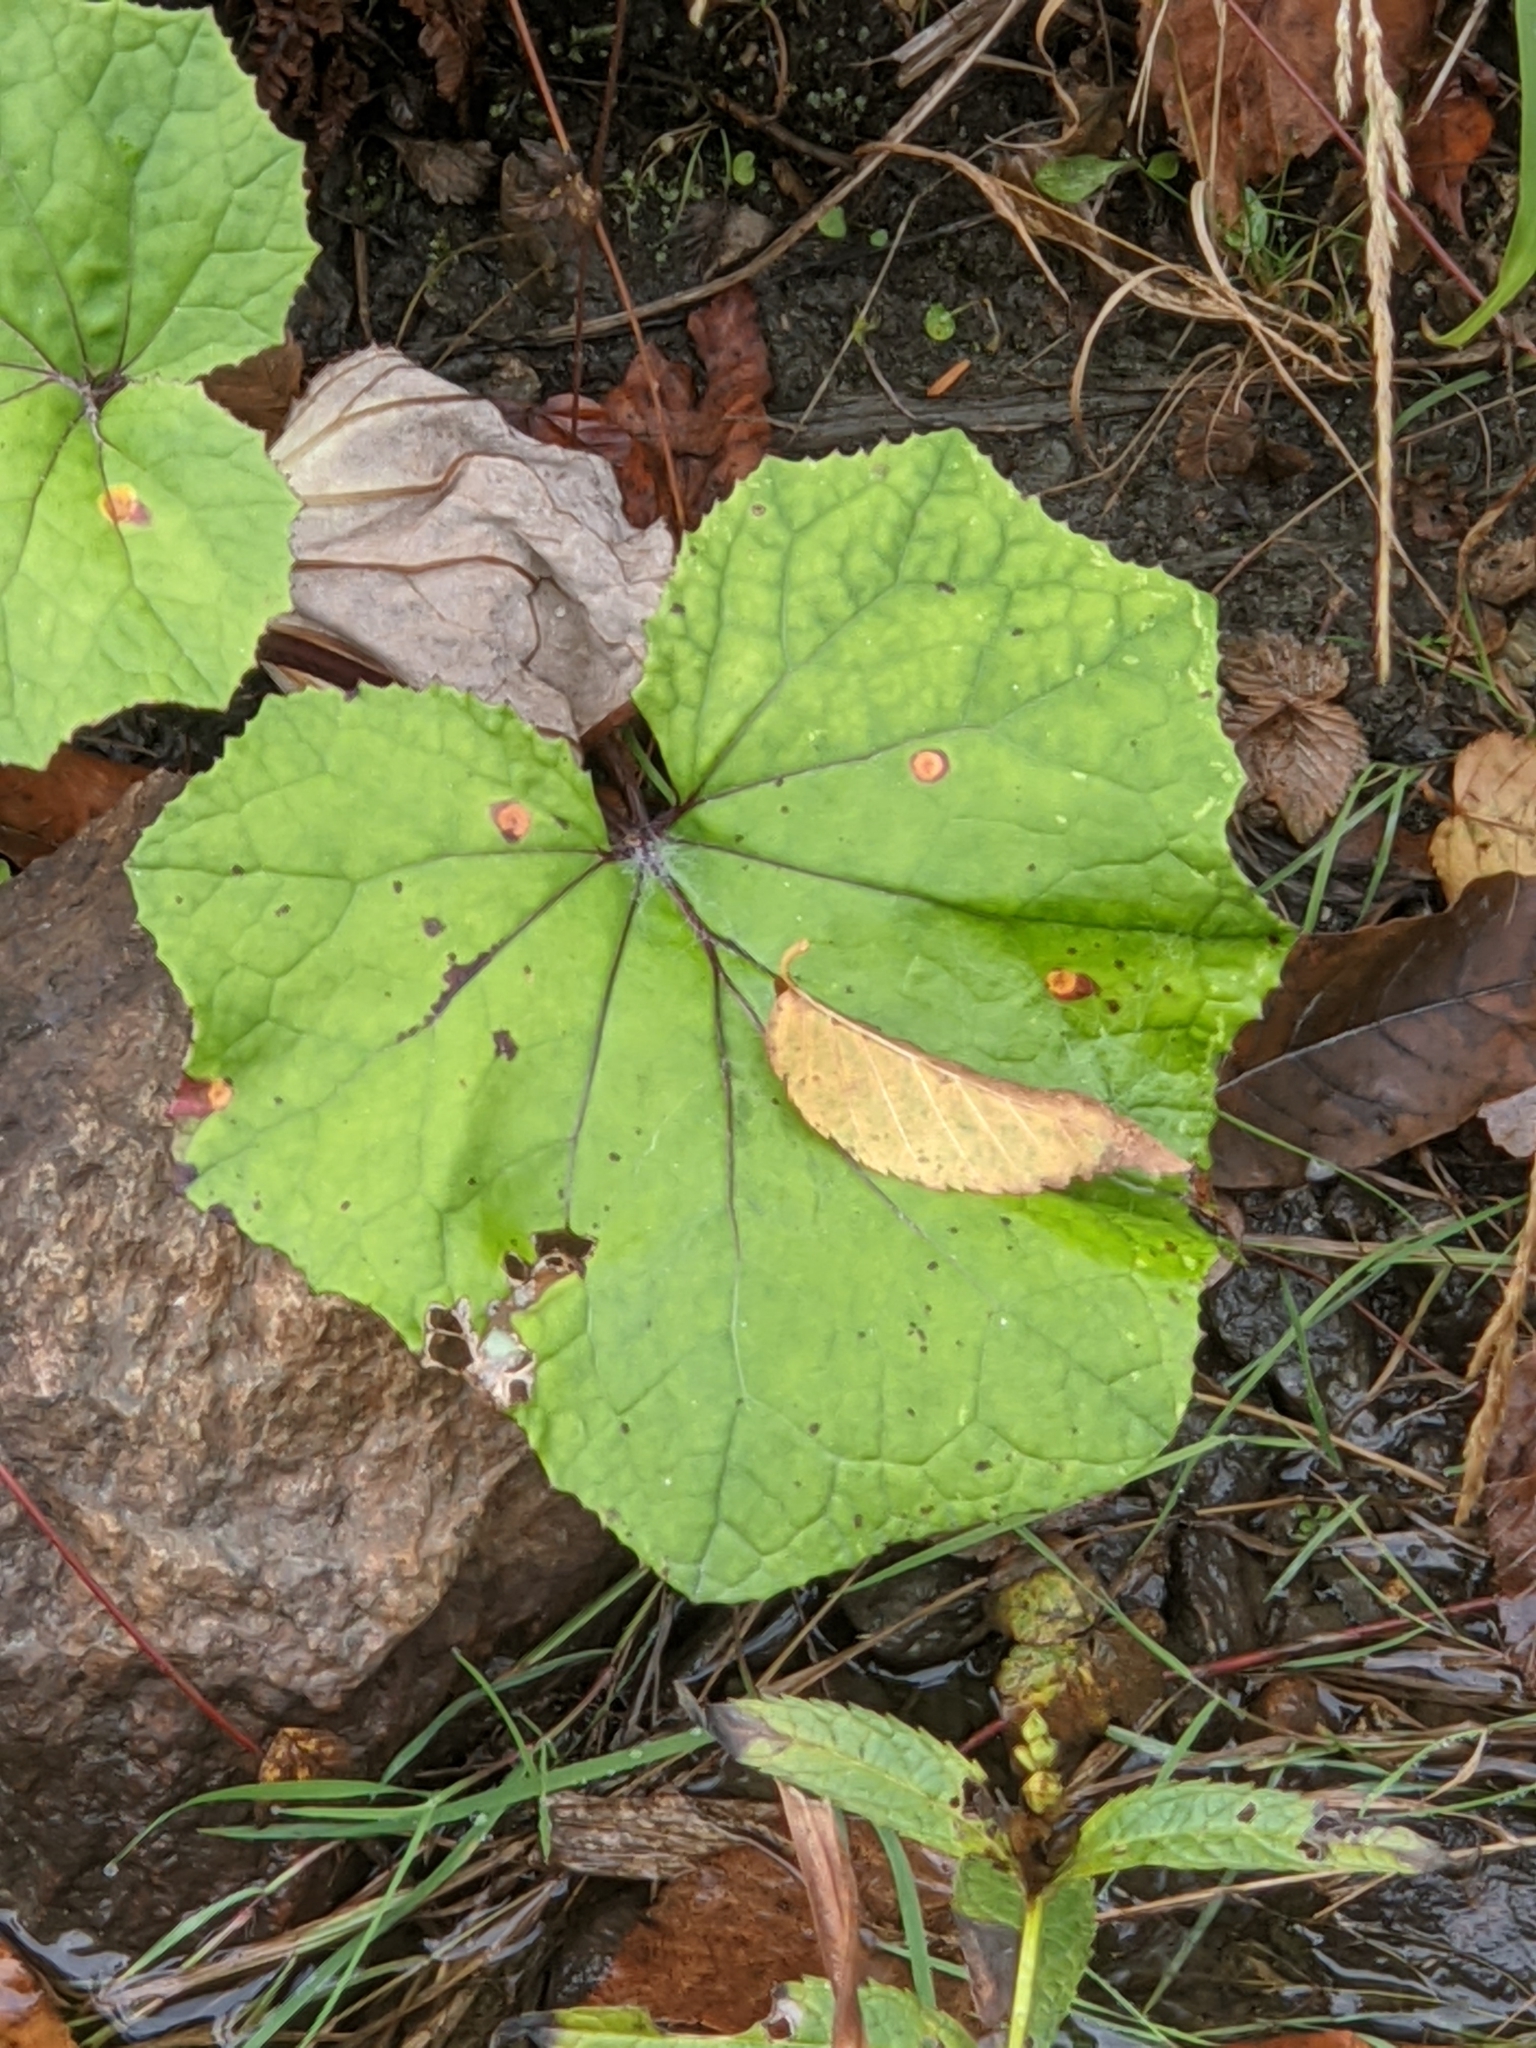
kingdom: Plantae
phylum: Tracheophyta
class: Magnoliopsida
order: Asterales
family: Asteraceae
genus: Tussilago
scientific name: Tussilago farfara
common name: Coltsfoot
